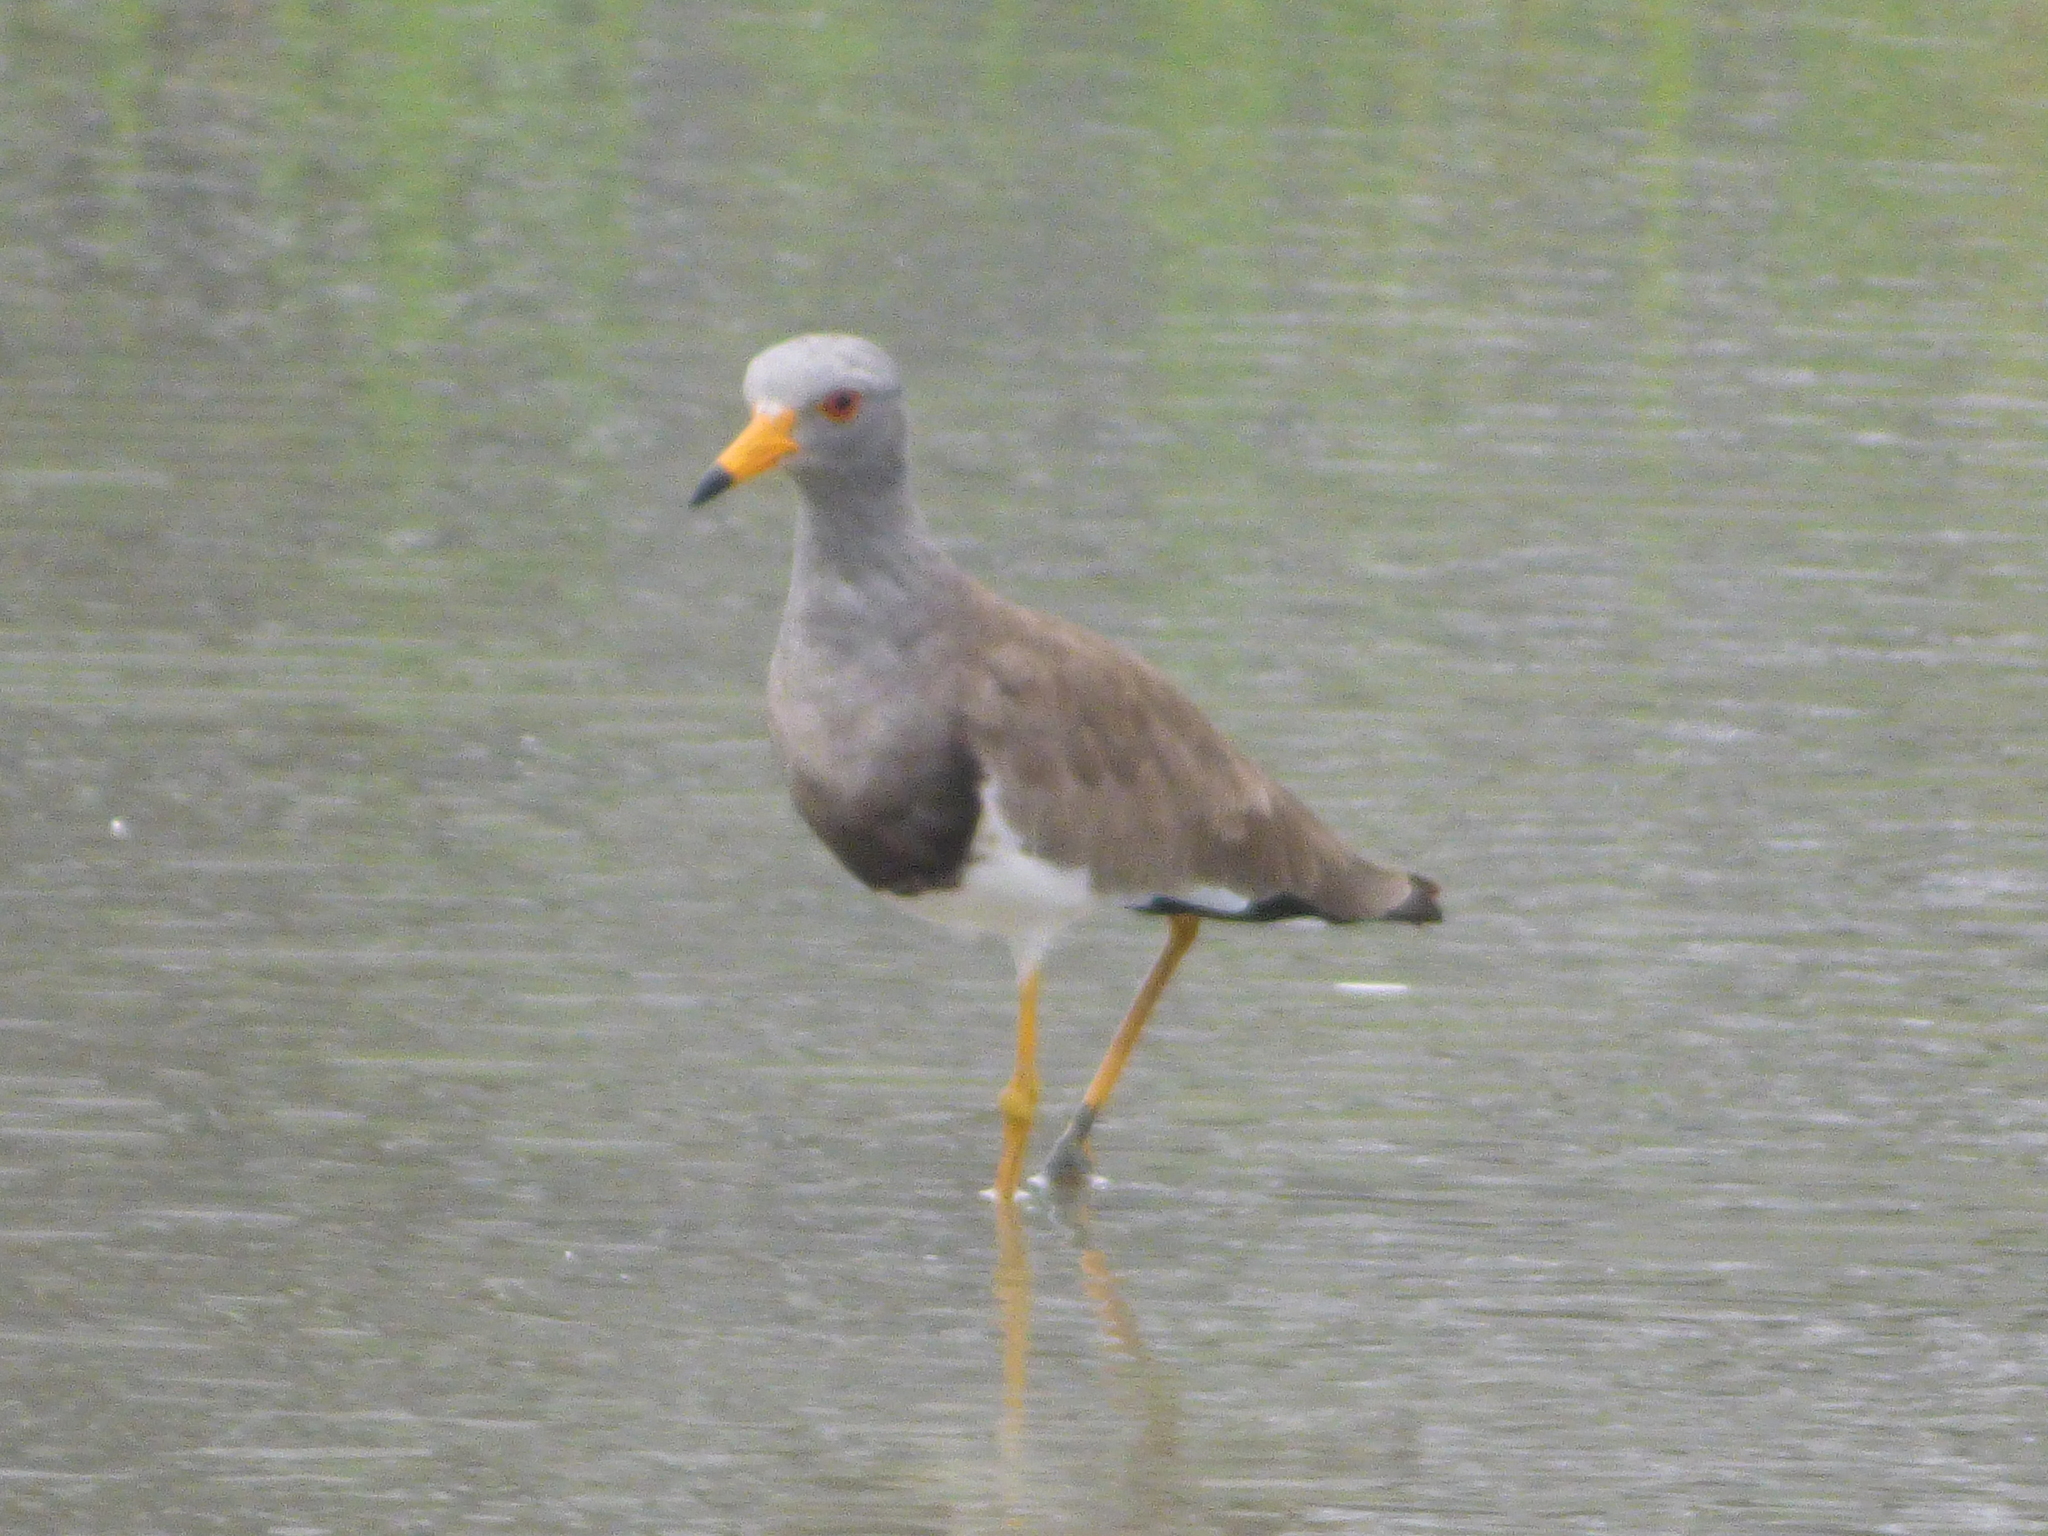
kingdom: Animalia
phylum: Chordata
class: Aves
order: Charadriiformes
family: Charadriidae
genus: Vanellus
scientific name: Vanellus cinereus
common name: Grey-headed lapwing
